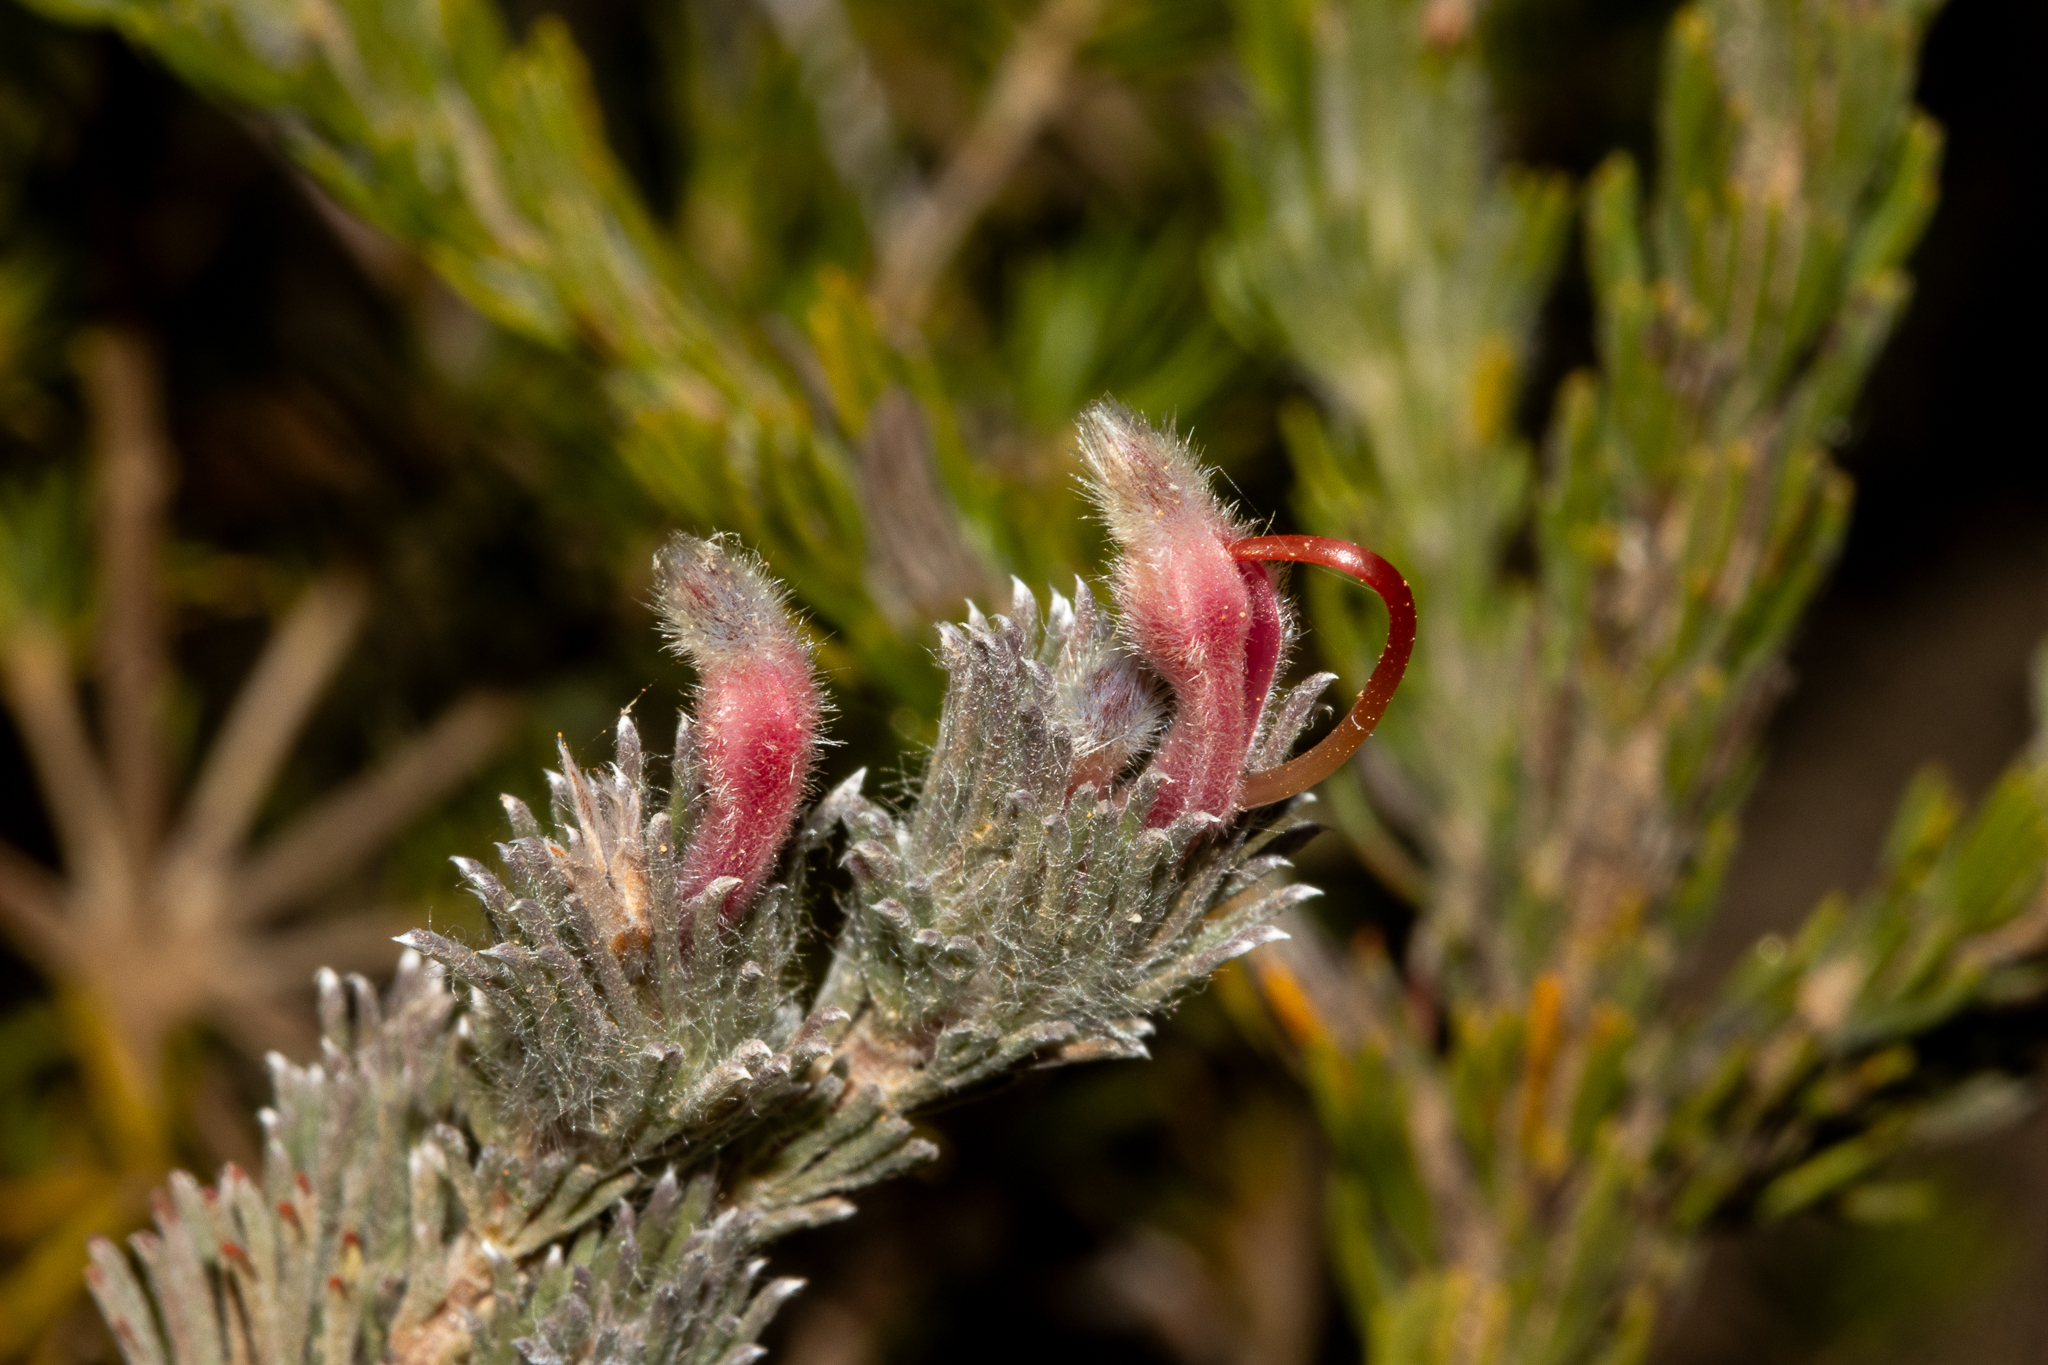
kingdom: Plantae
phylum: Tracheophyta
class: Magnoliopsida
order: Proteales
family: Proteaceae
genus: Adenanthos
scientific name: Adenanthos macropodianus
